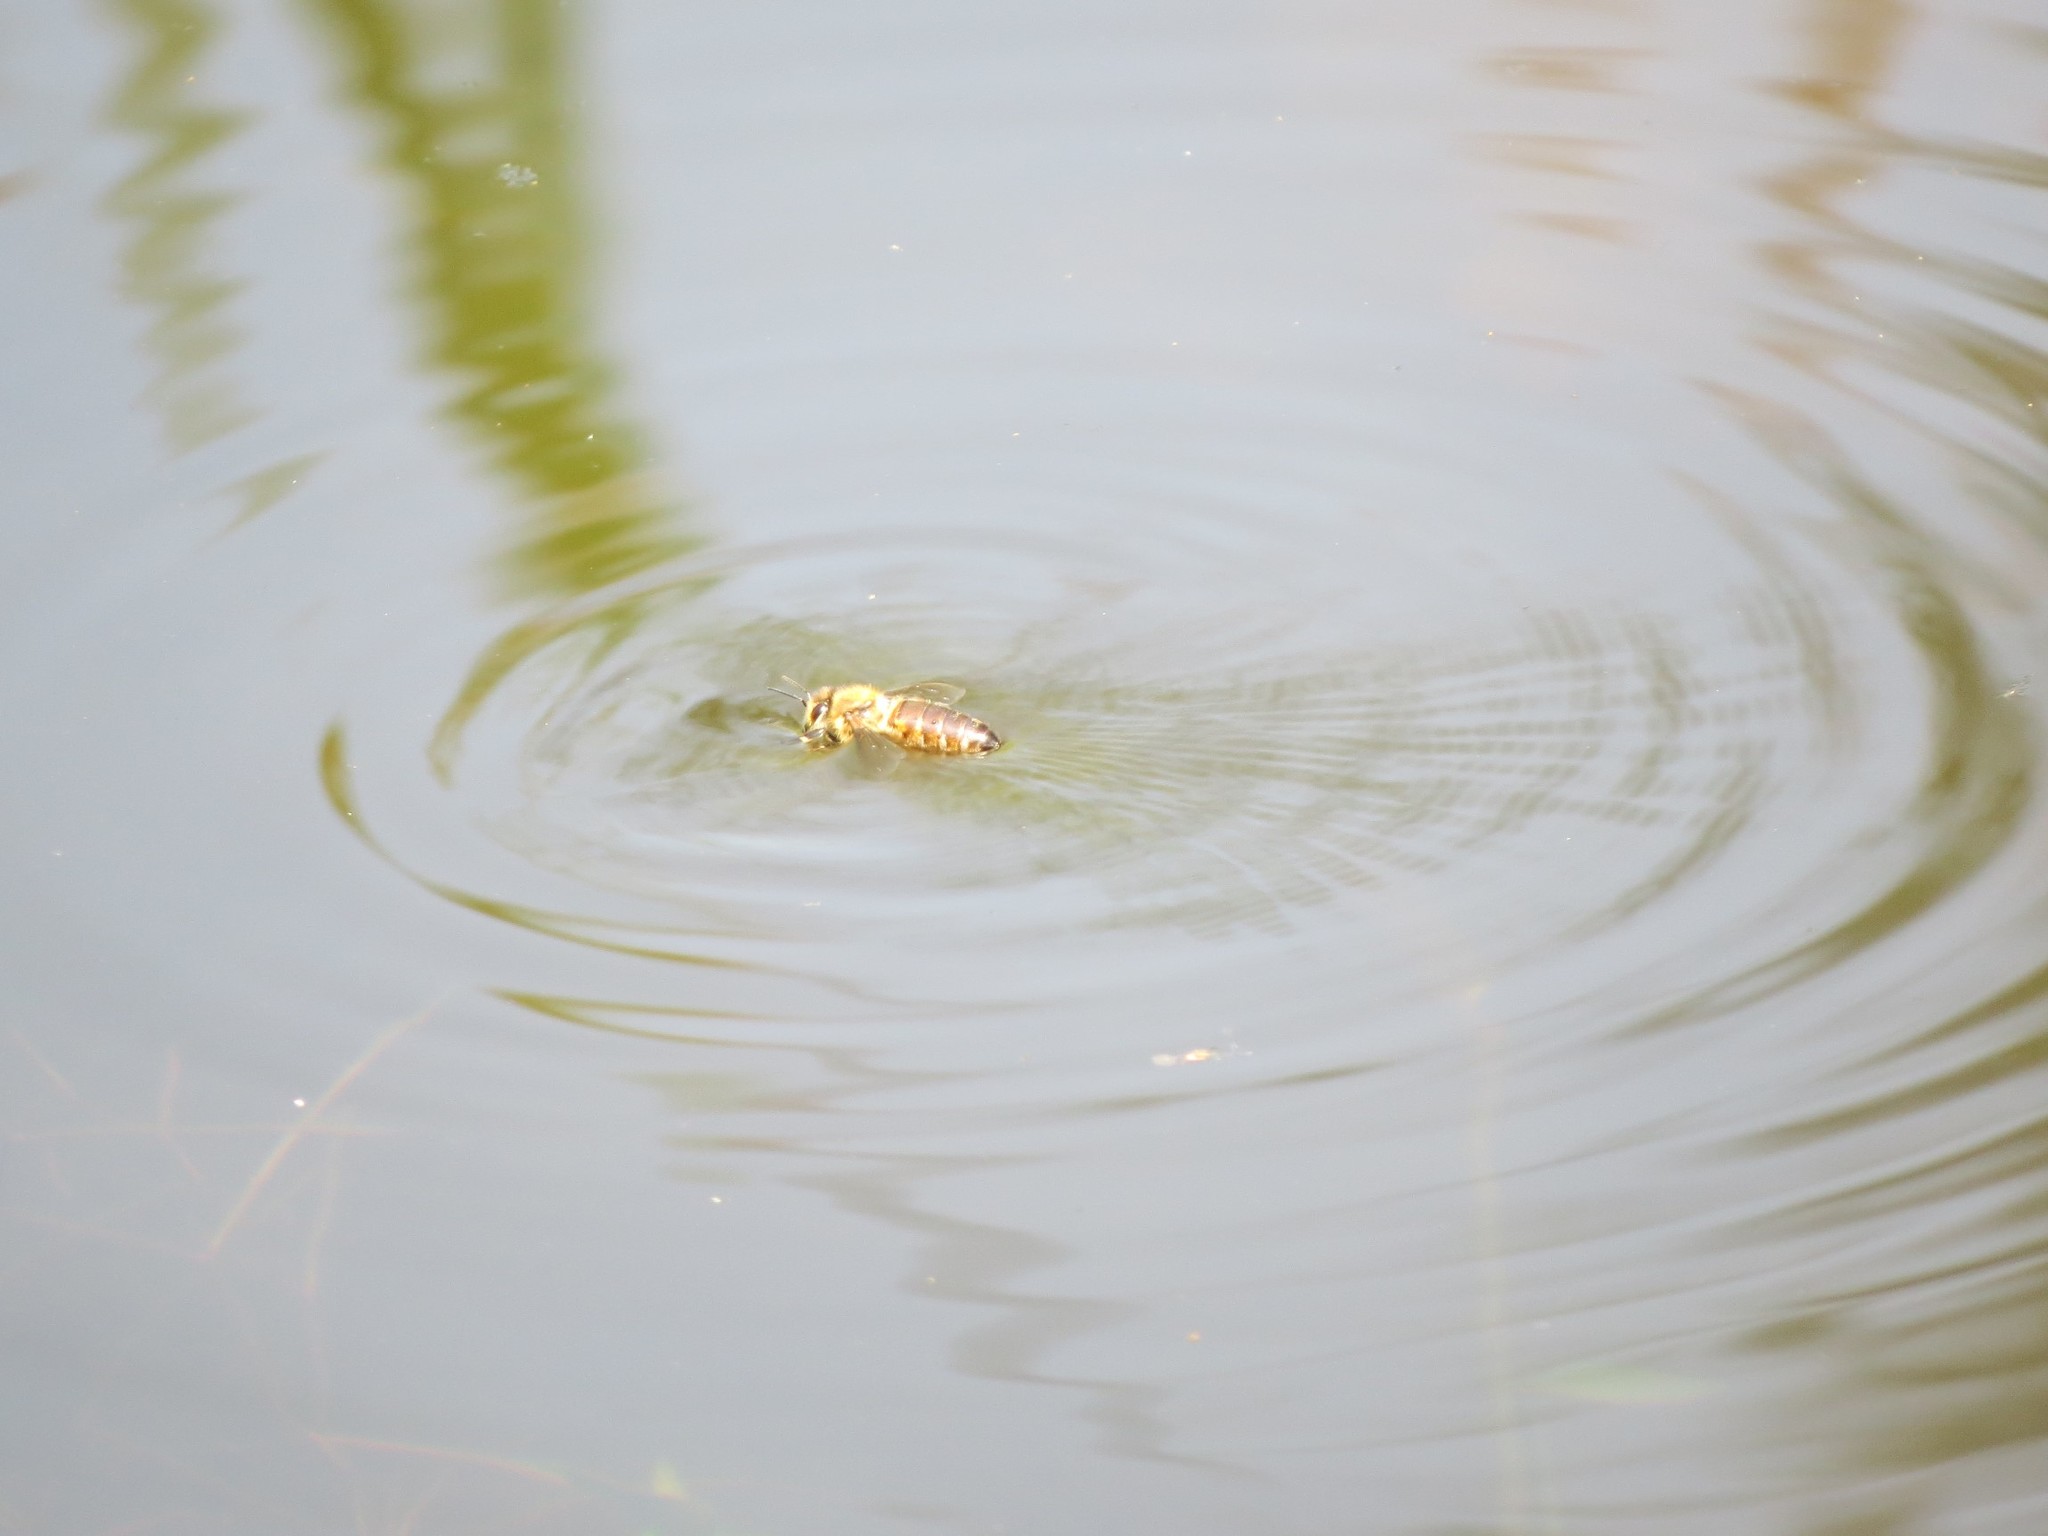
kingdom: Animalia
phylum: Arthropoda
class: Insecta
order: Hymenoptera
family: Apidae
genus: Apis
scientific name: Apis mellifera
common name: Honey bee
